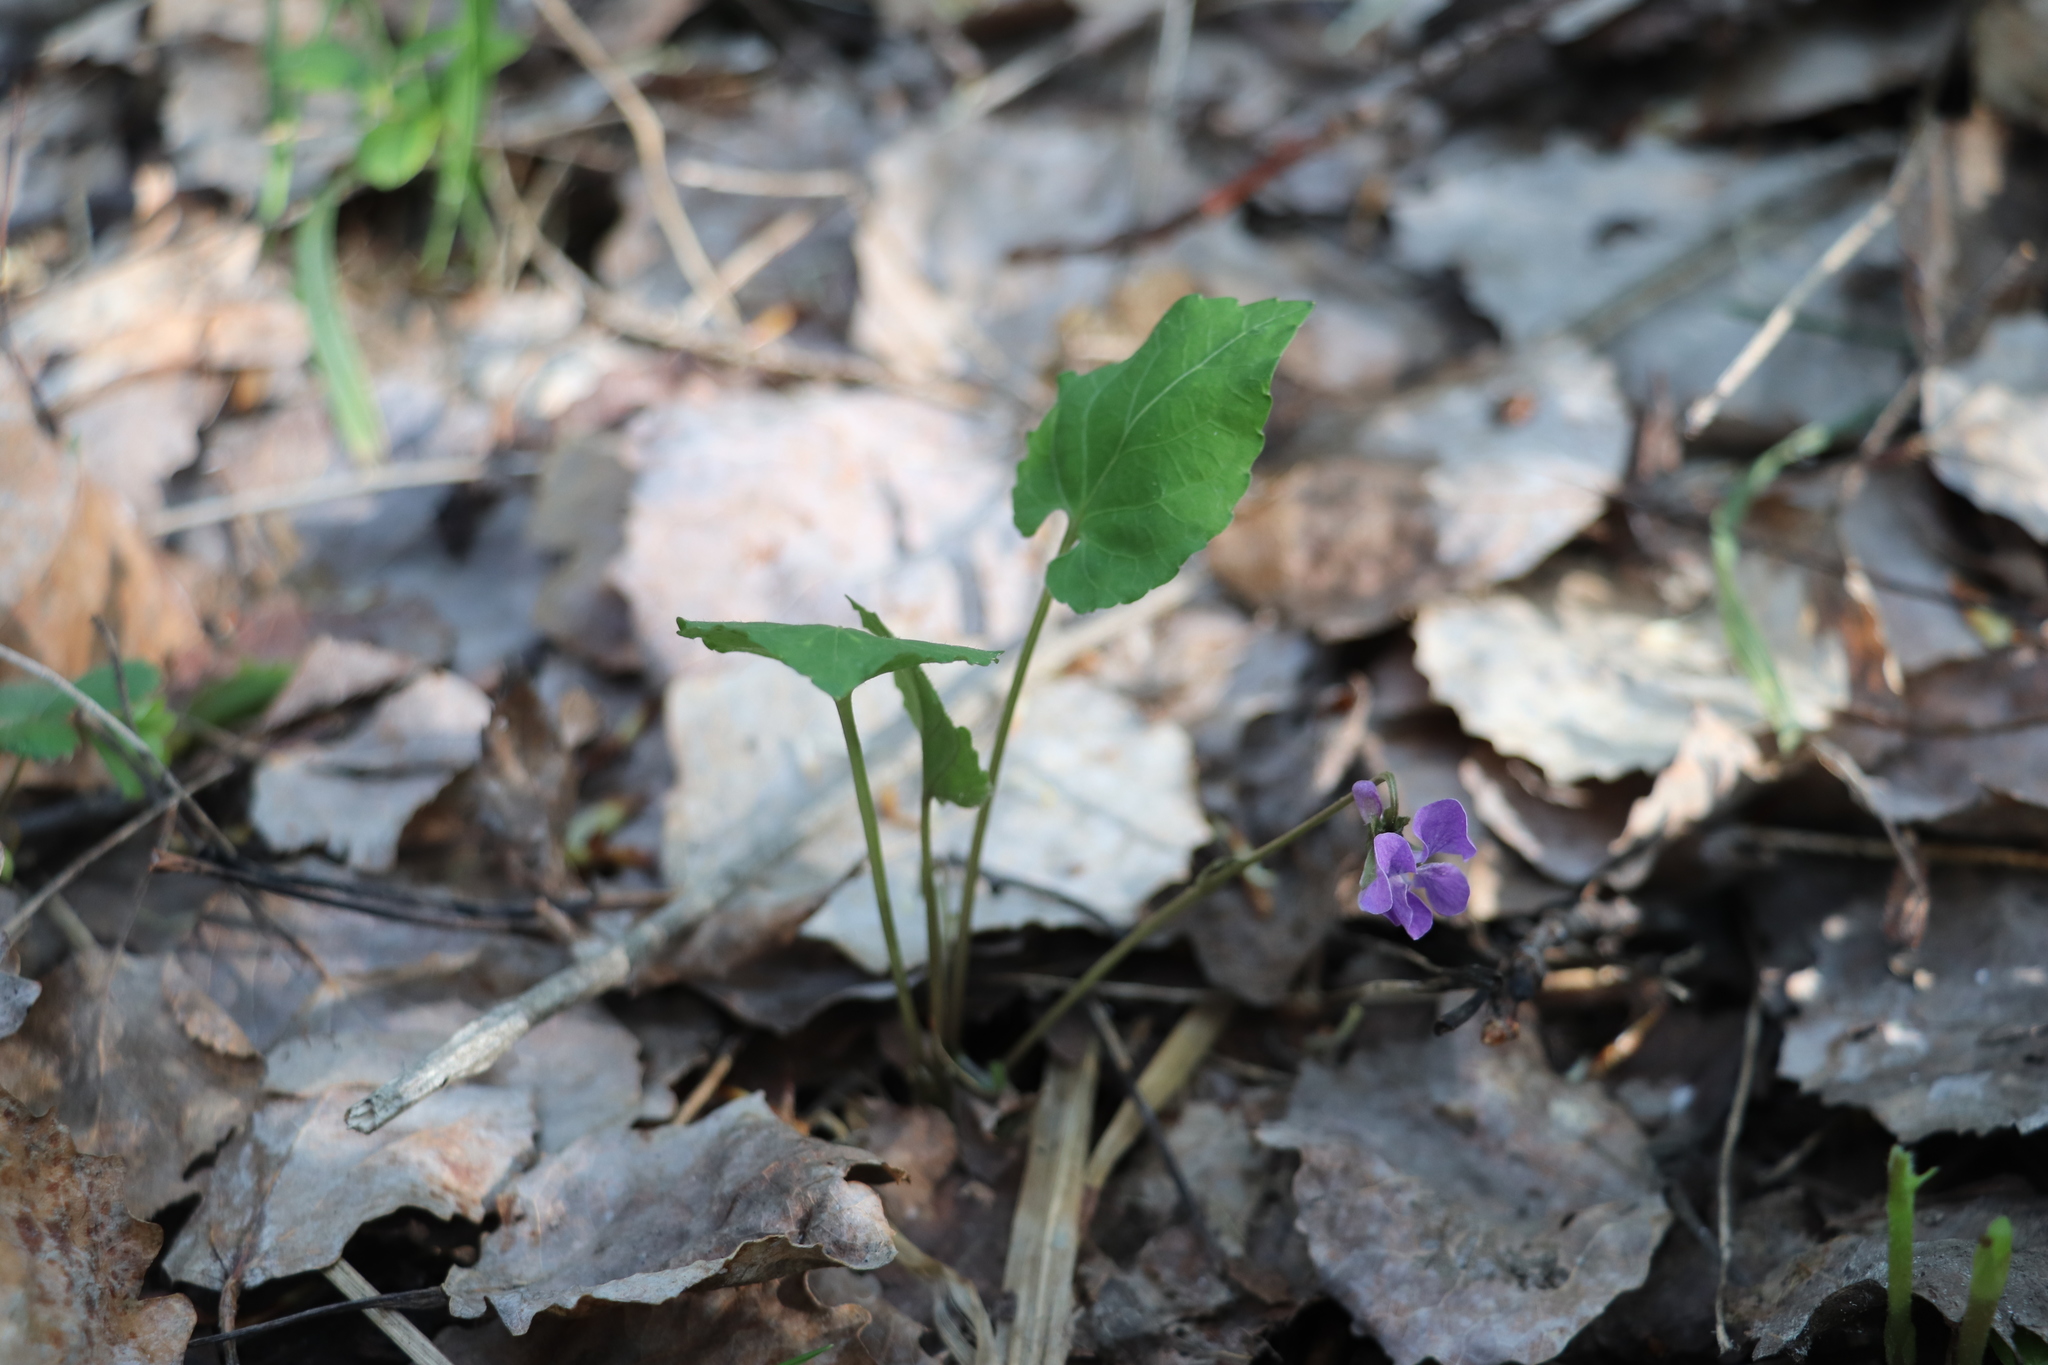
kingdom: Plantae
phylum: Tracheophyta
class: Magnoliopsida
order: Malpighiales
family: Violaceae
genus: Viola
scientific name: Viola selkirkii
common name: Selkirk's violet
